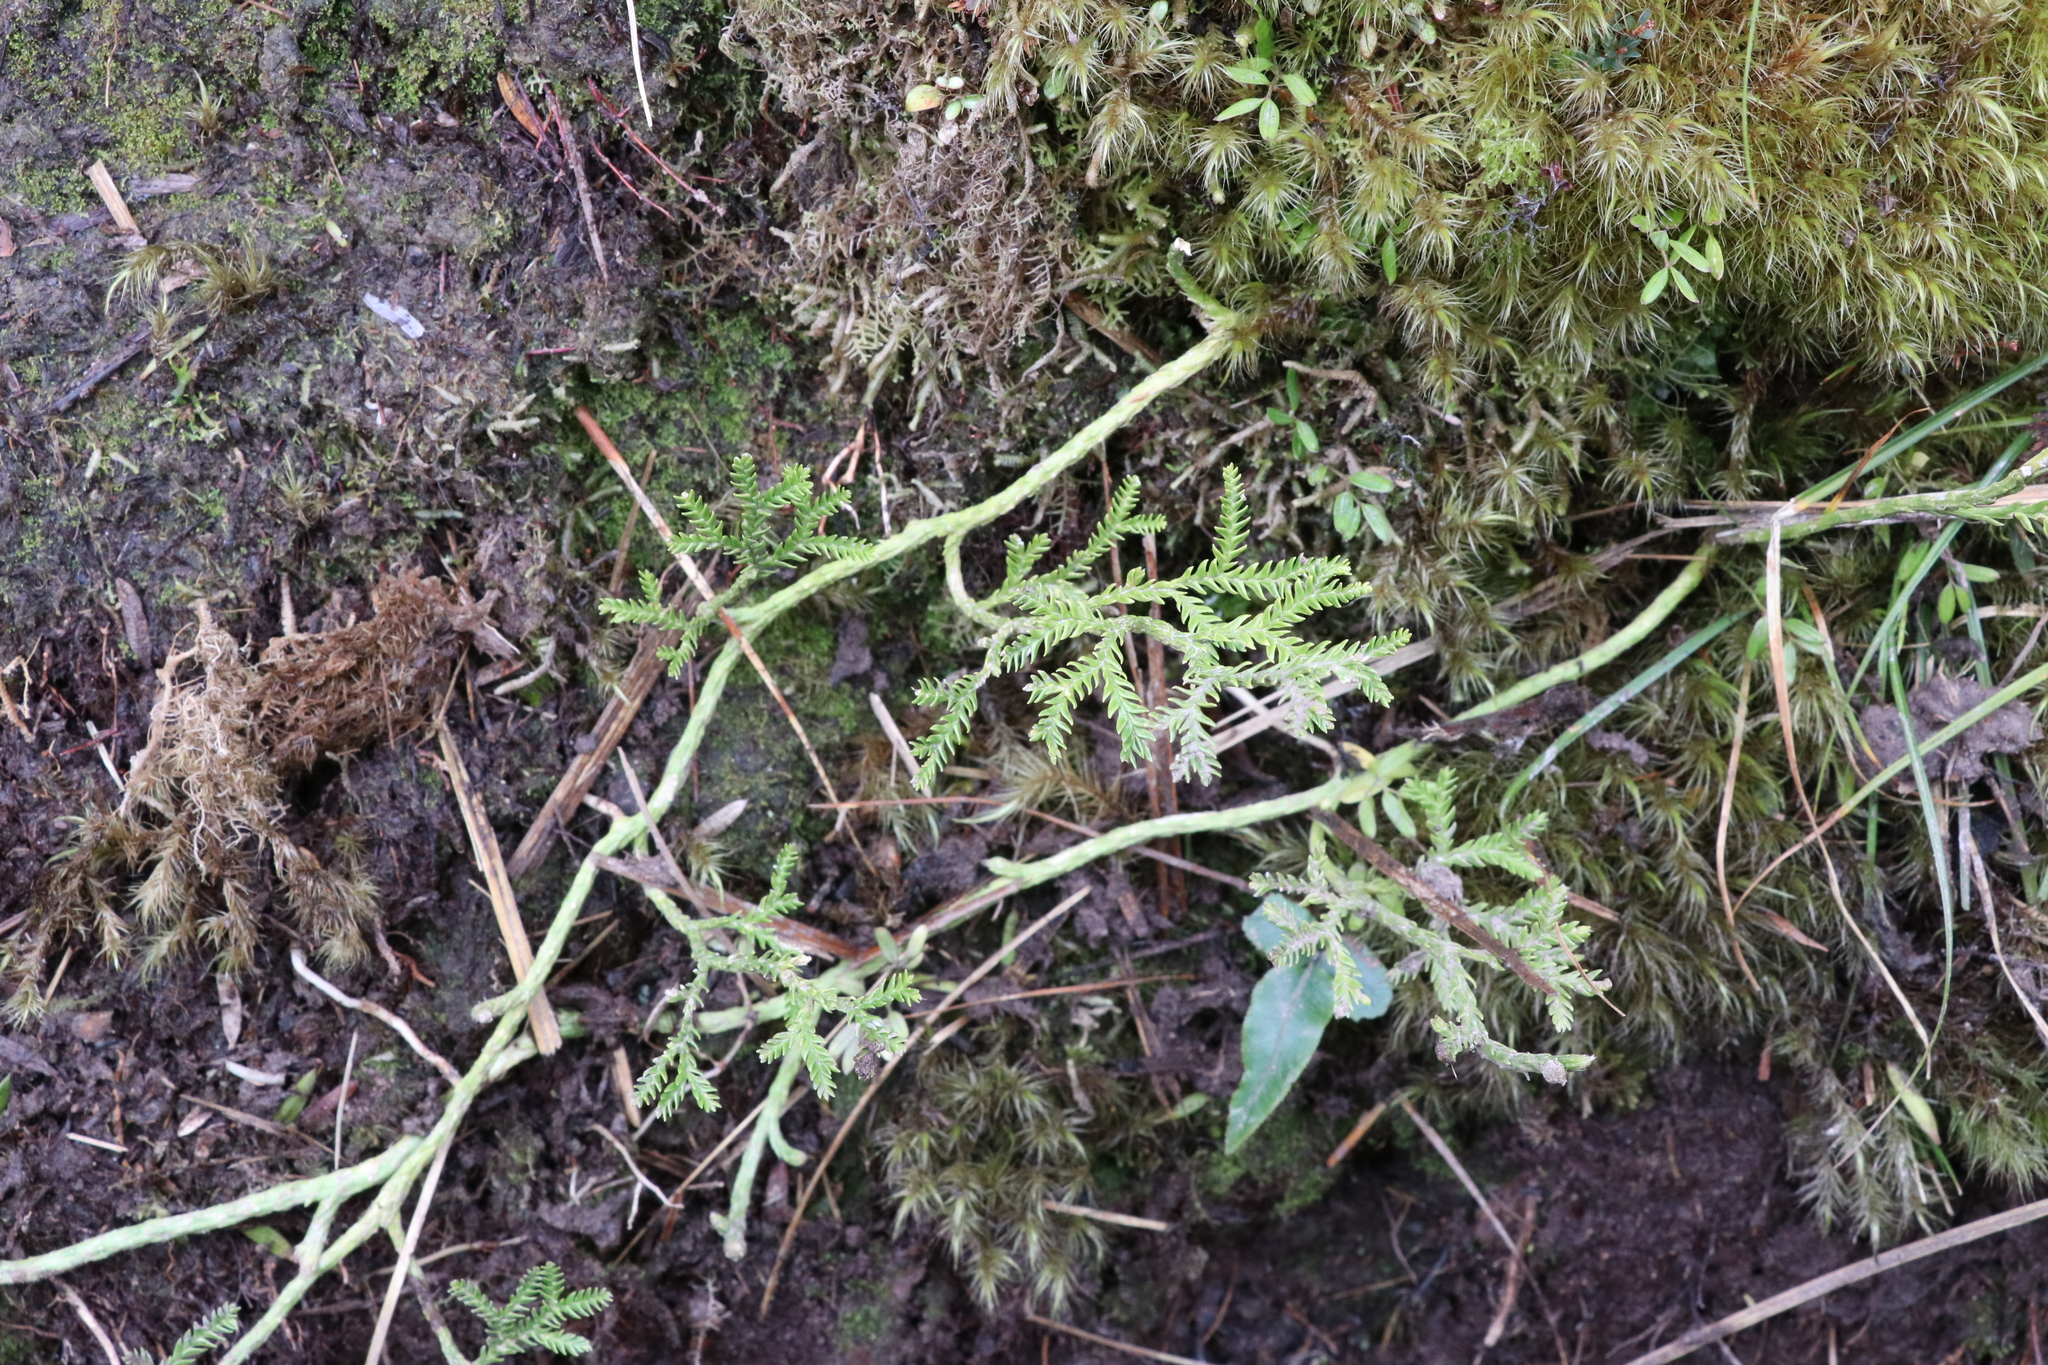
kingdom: Plantae
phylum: Tracheophyta
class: Lycopodiopsida
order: Lycopodiales
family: Lycopodiaceae
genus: Diphasium
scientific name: Diphasium scariosum
